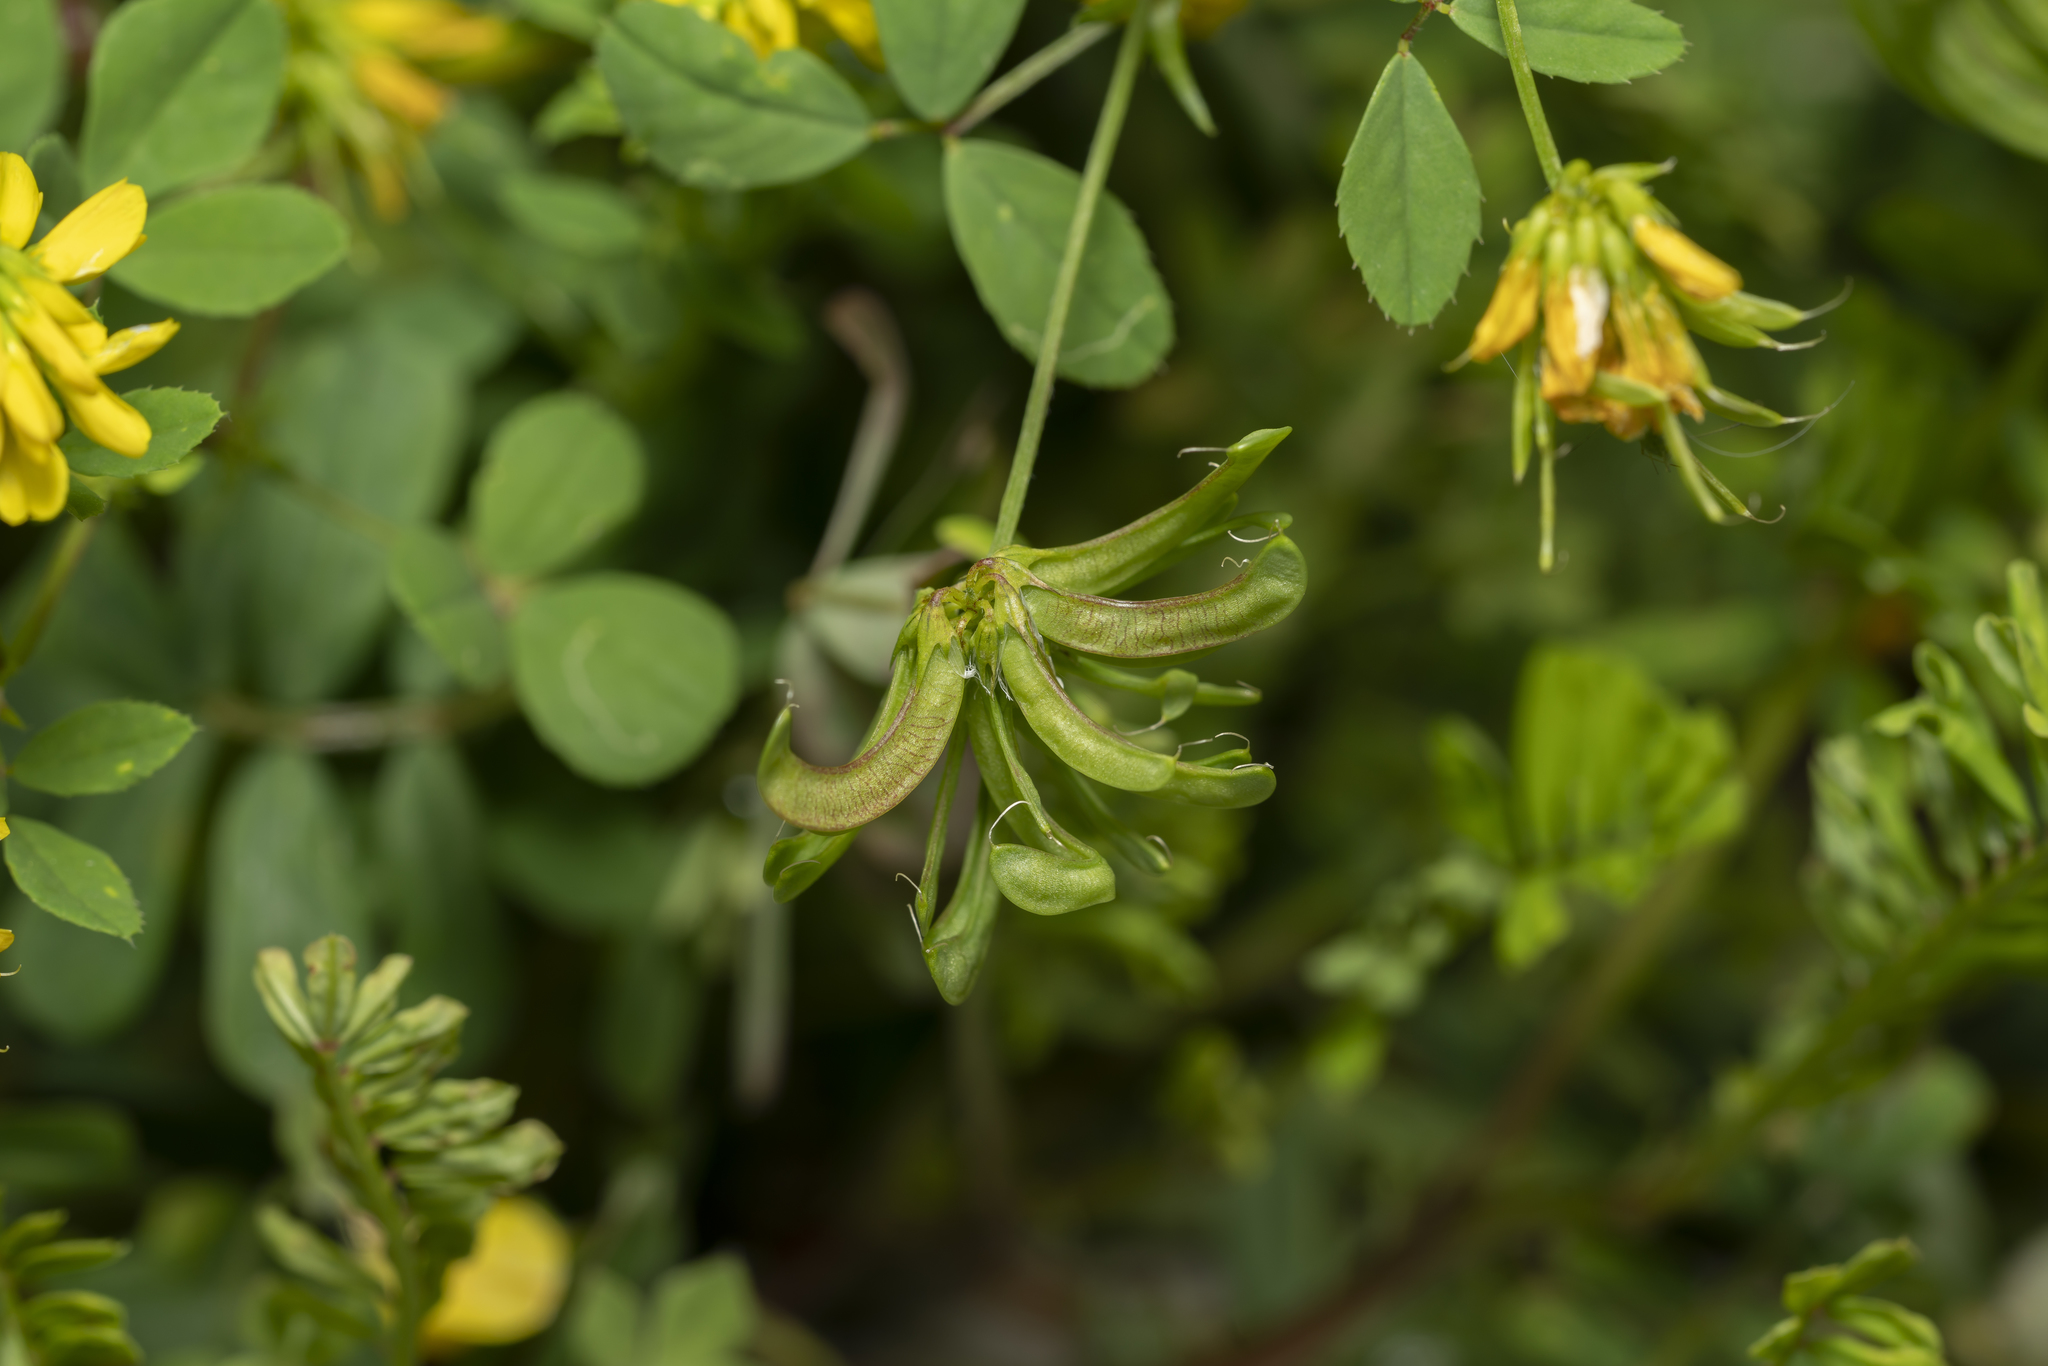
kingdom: Plantae
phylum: Tracheophyta
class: Magnoliopsida
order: Fabales
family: Fabaceae
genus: Trigonella
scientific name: Trigonella balansae
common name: Sickle-fruited fenugreek
